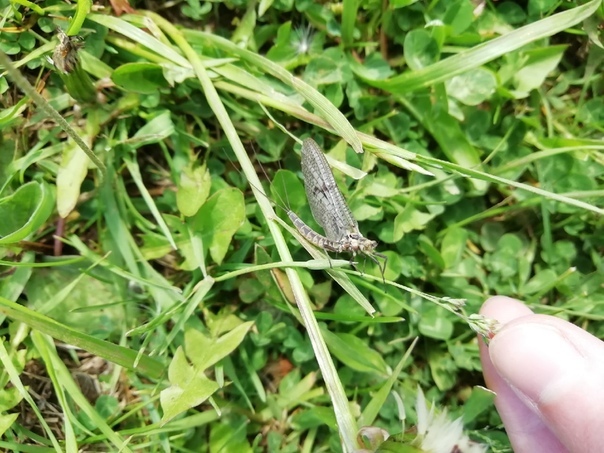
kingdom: Animalia
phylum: Arthropoda
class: Insecta
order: Ephemeroptera
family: Ephemeridae
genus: Ephemera
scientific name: Ephemera vulgata
